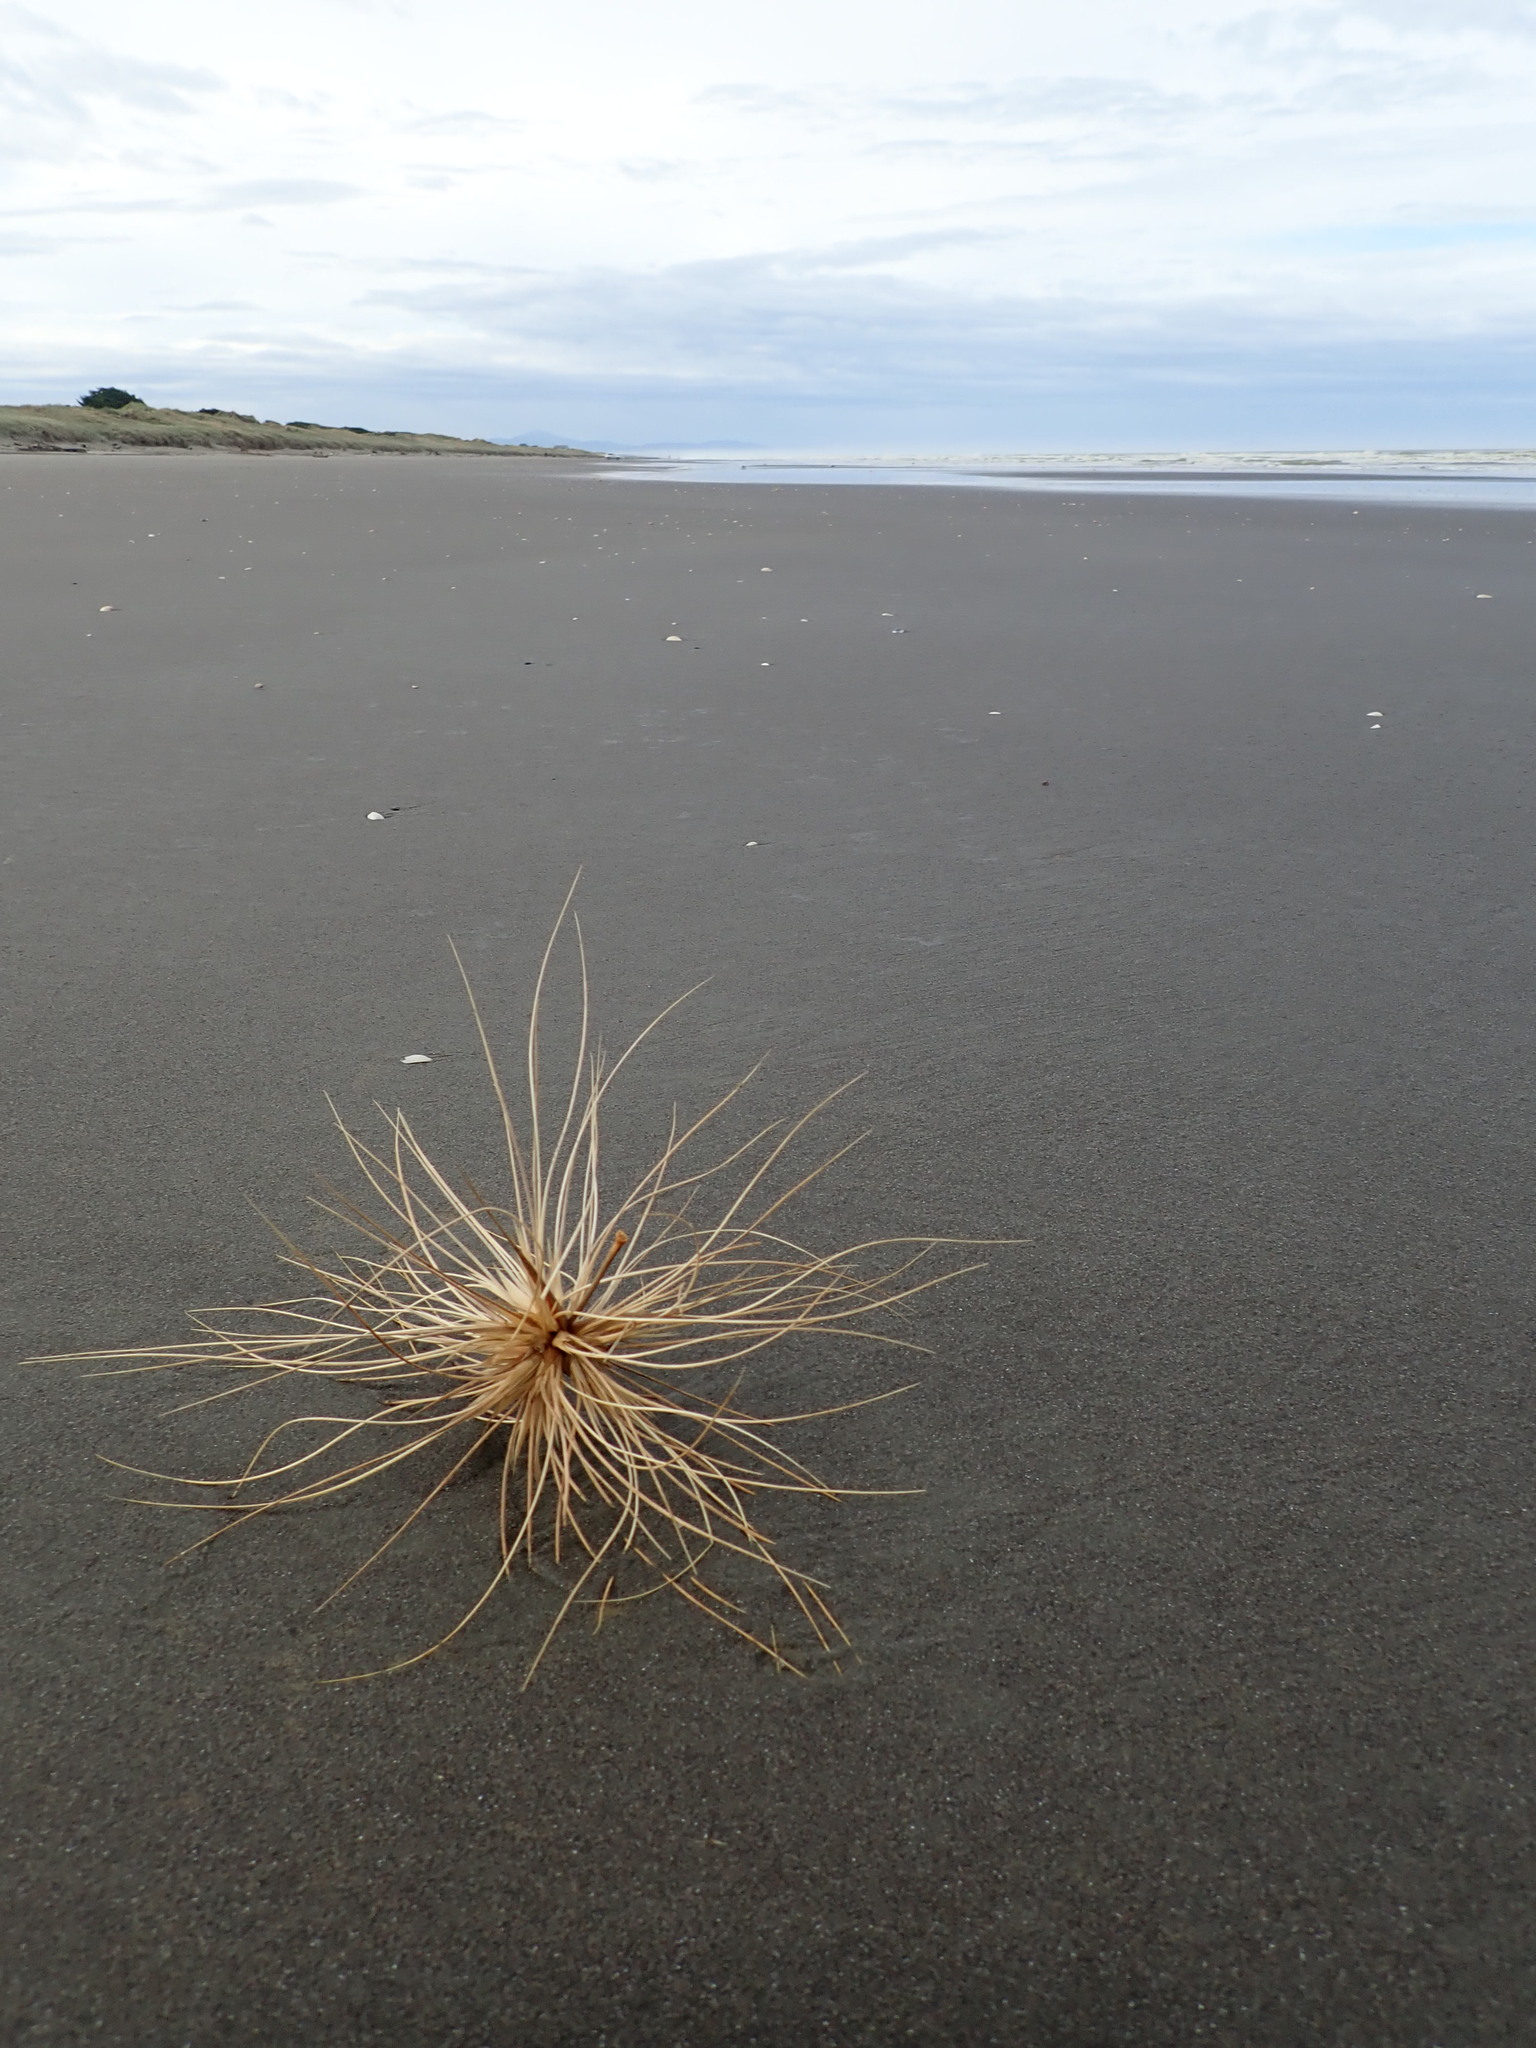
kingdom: Plantae
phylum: Tracheophyta
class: Liliopsida
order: Poales
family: Poaceae
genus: Spinifex
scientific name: Spinifex sericeus
